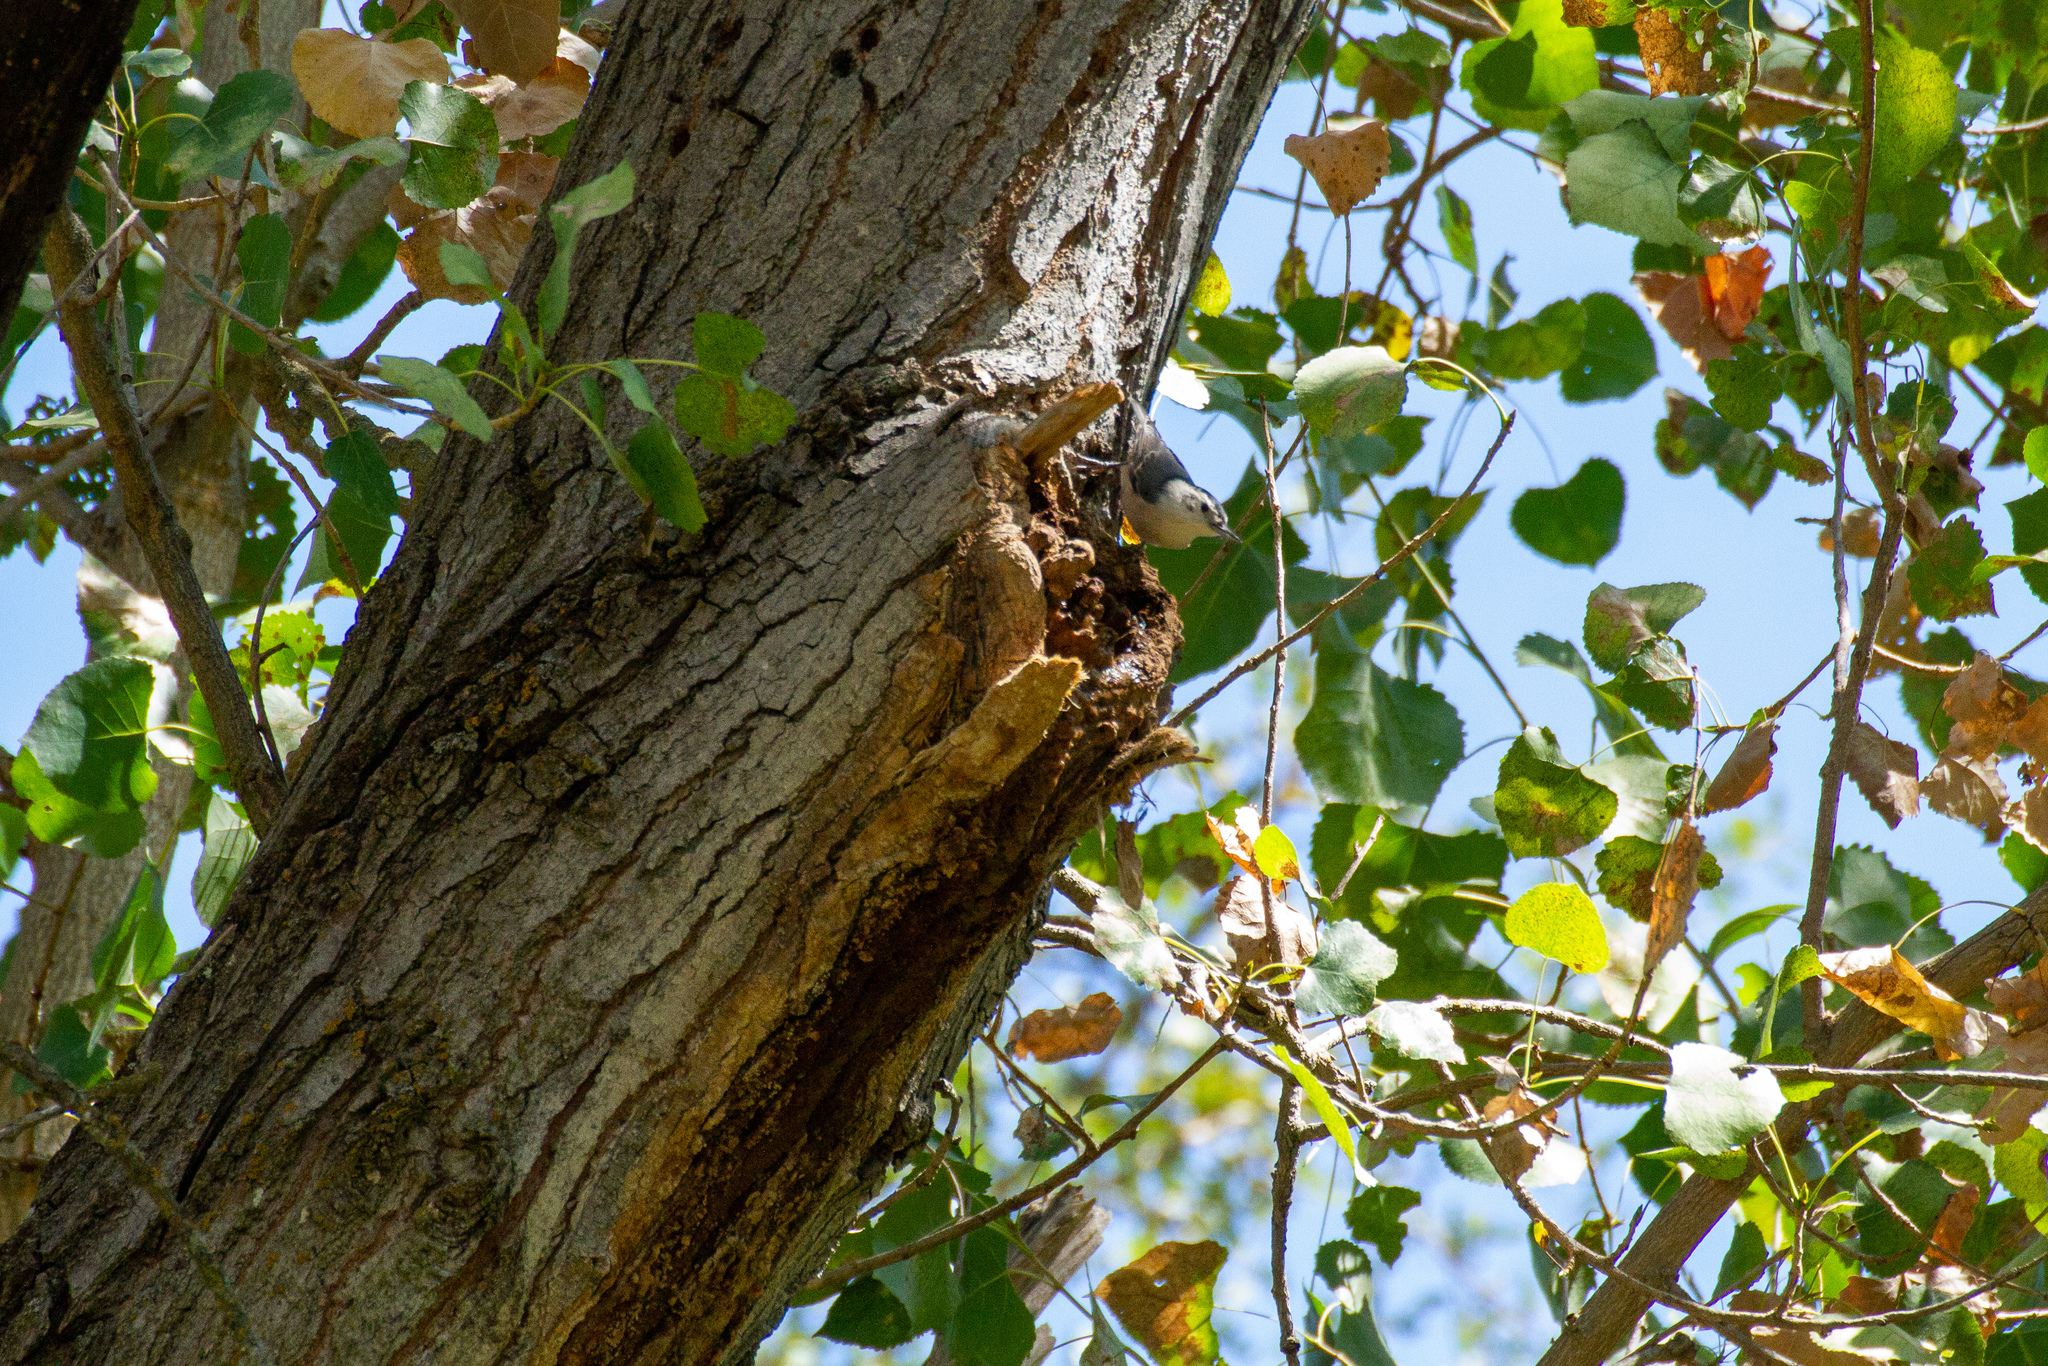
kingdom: Animalia
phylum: Chordata
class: Aves
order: Passeriformes
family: Sittidae
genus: Sitta
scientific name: Sitta carolinensis
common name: White-breasted nuthatch
